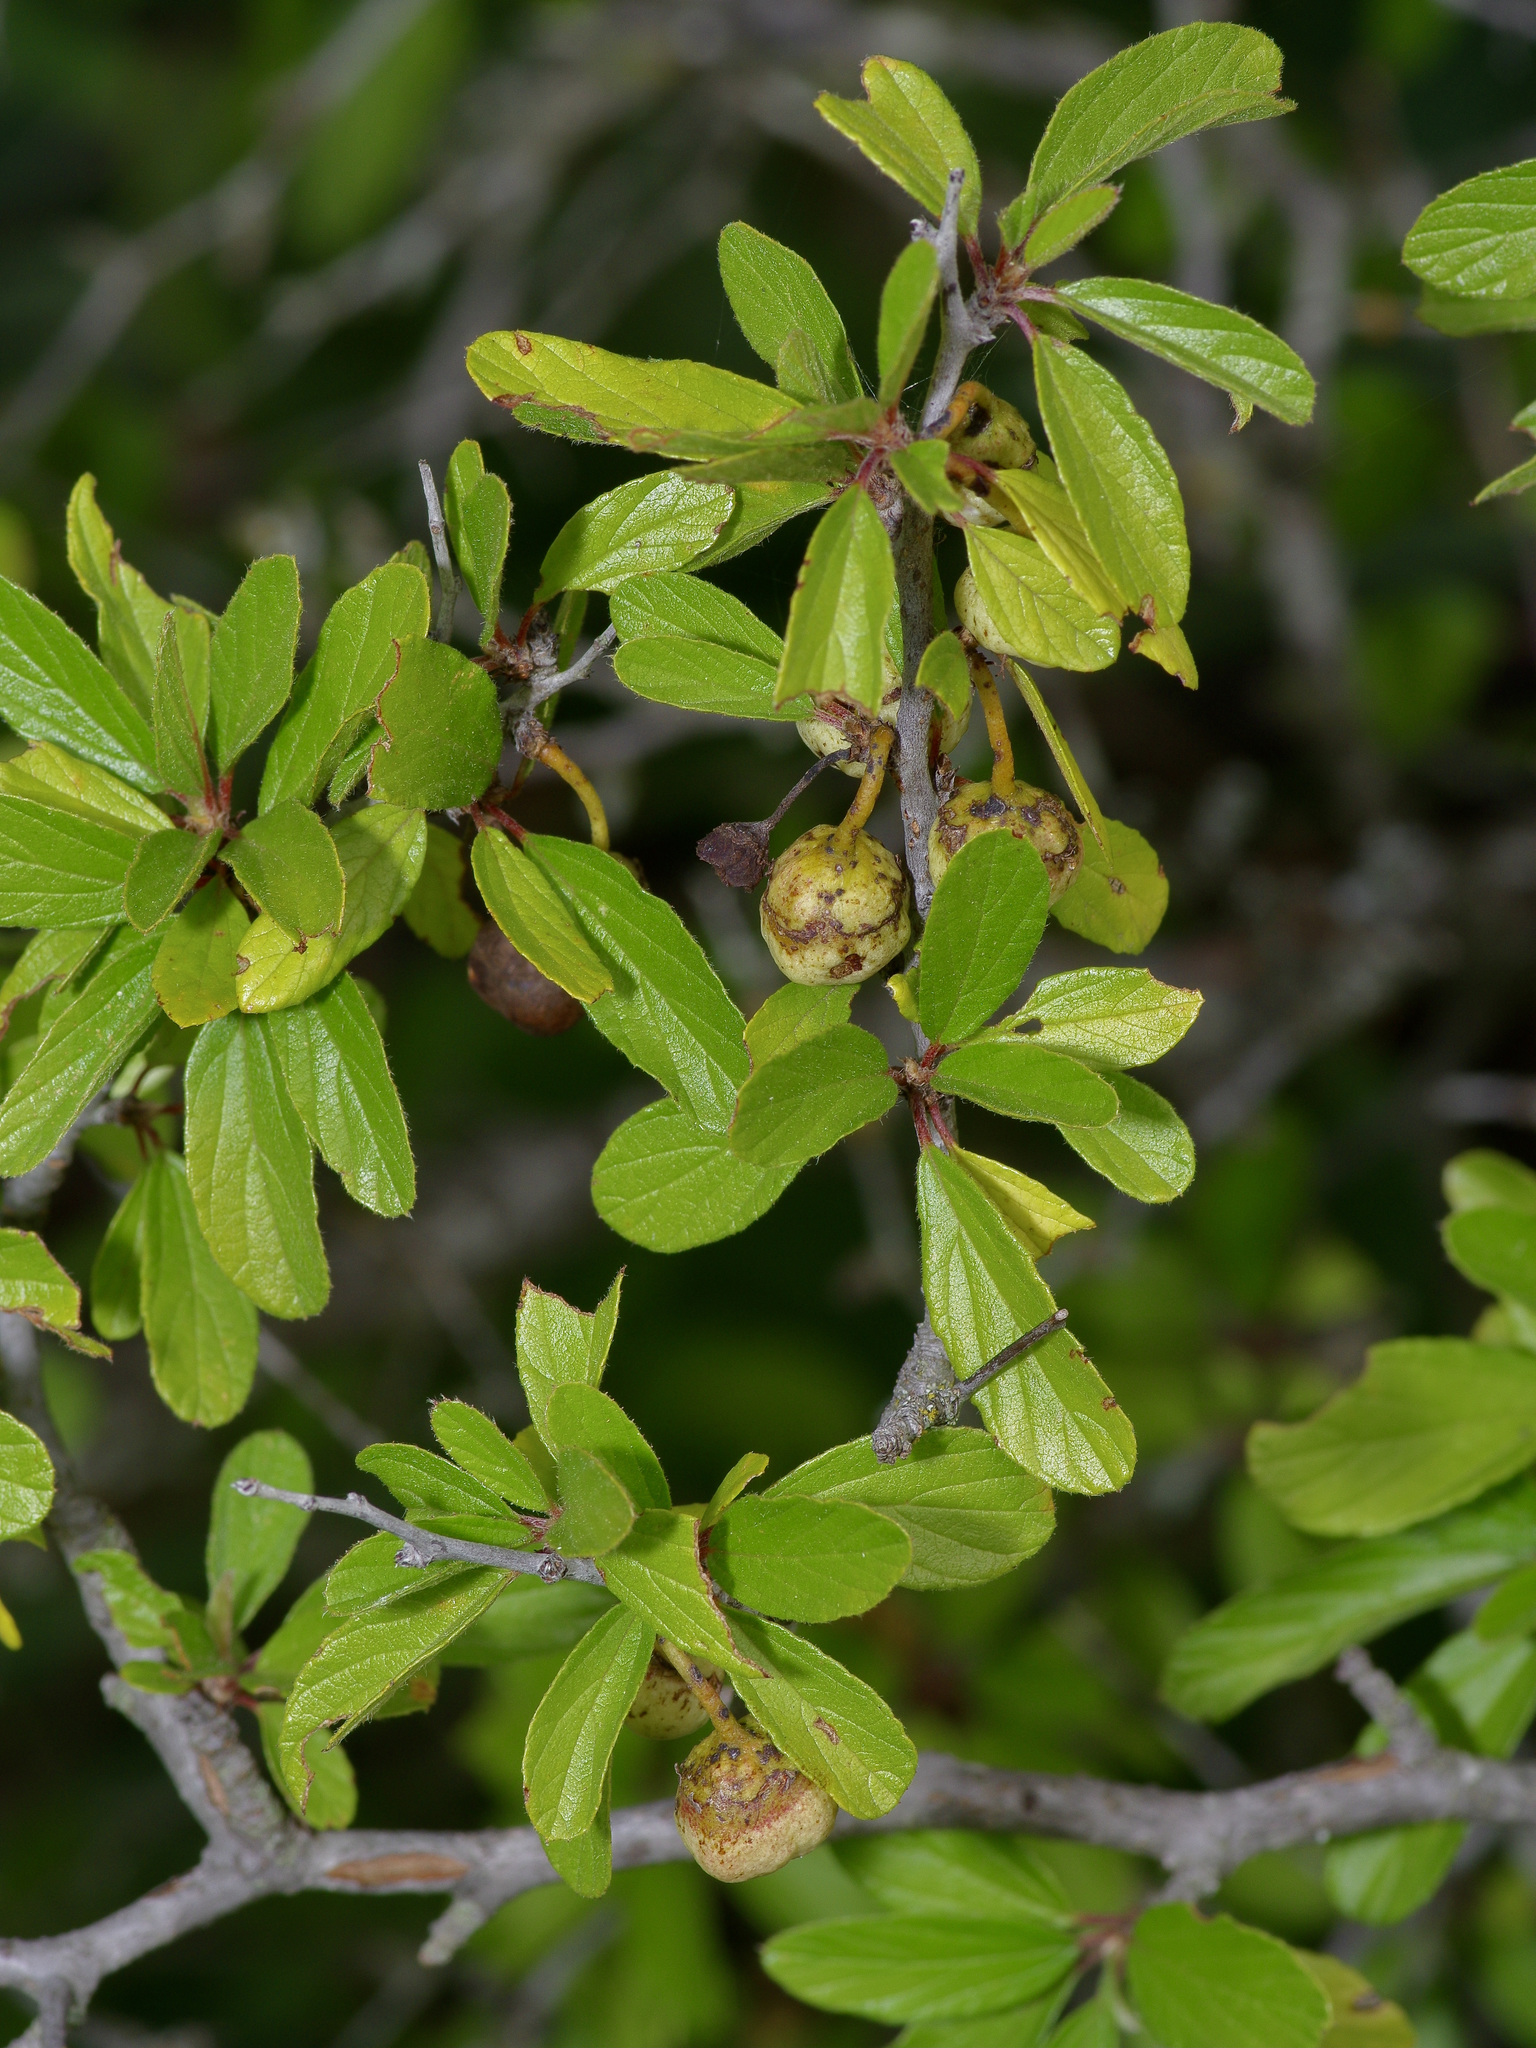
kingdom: Plantae
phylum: Tracheophyta
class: Magnoliopsida
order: Rosales
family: Rhamnaceae
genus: Colubrina
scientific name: Colubrina texensis
